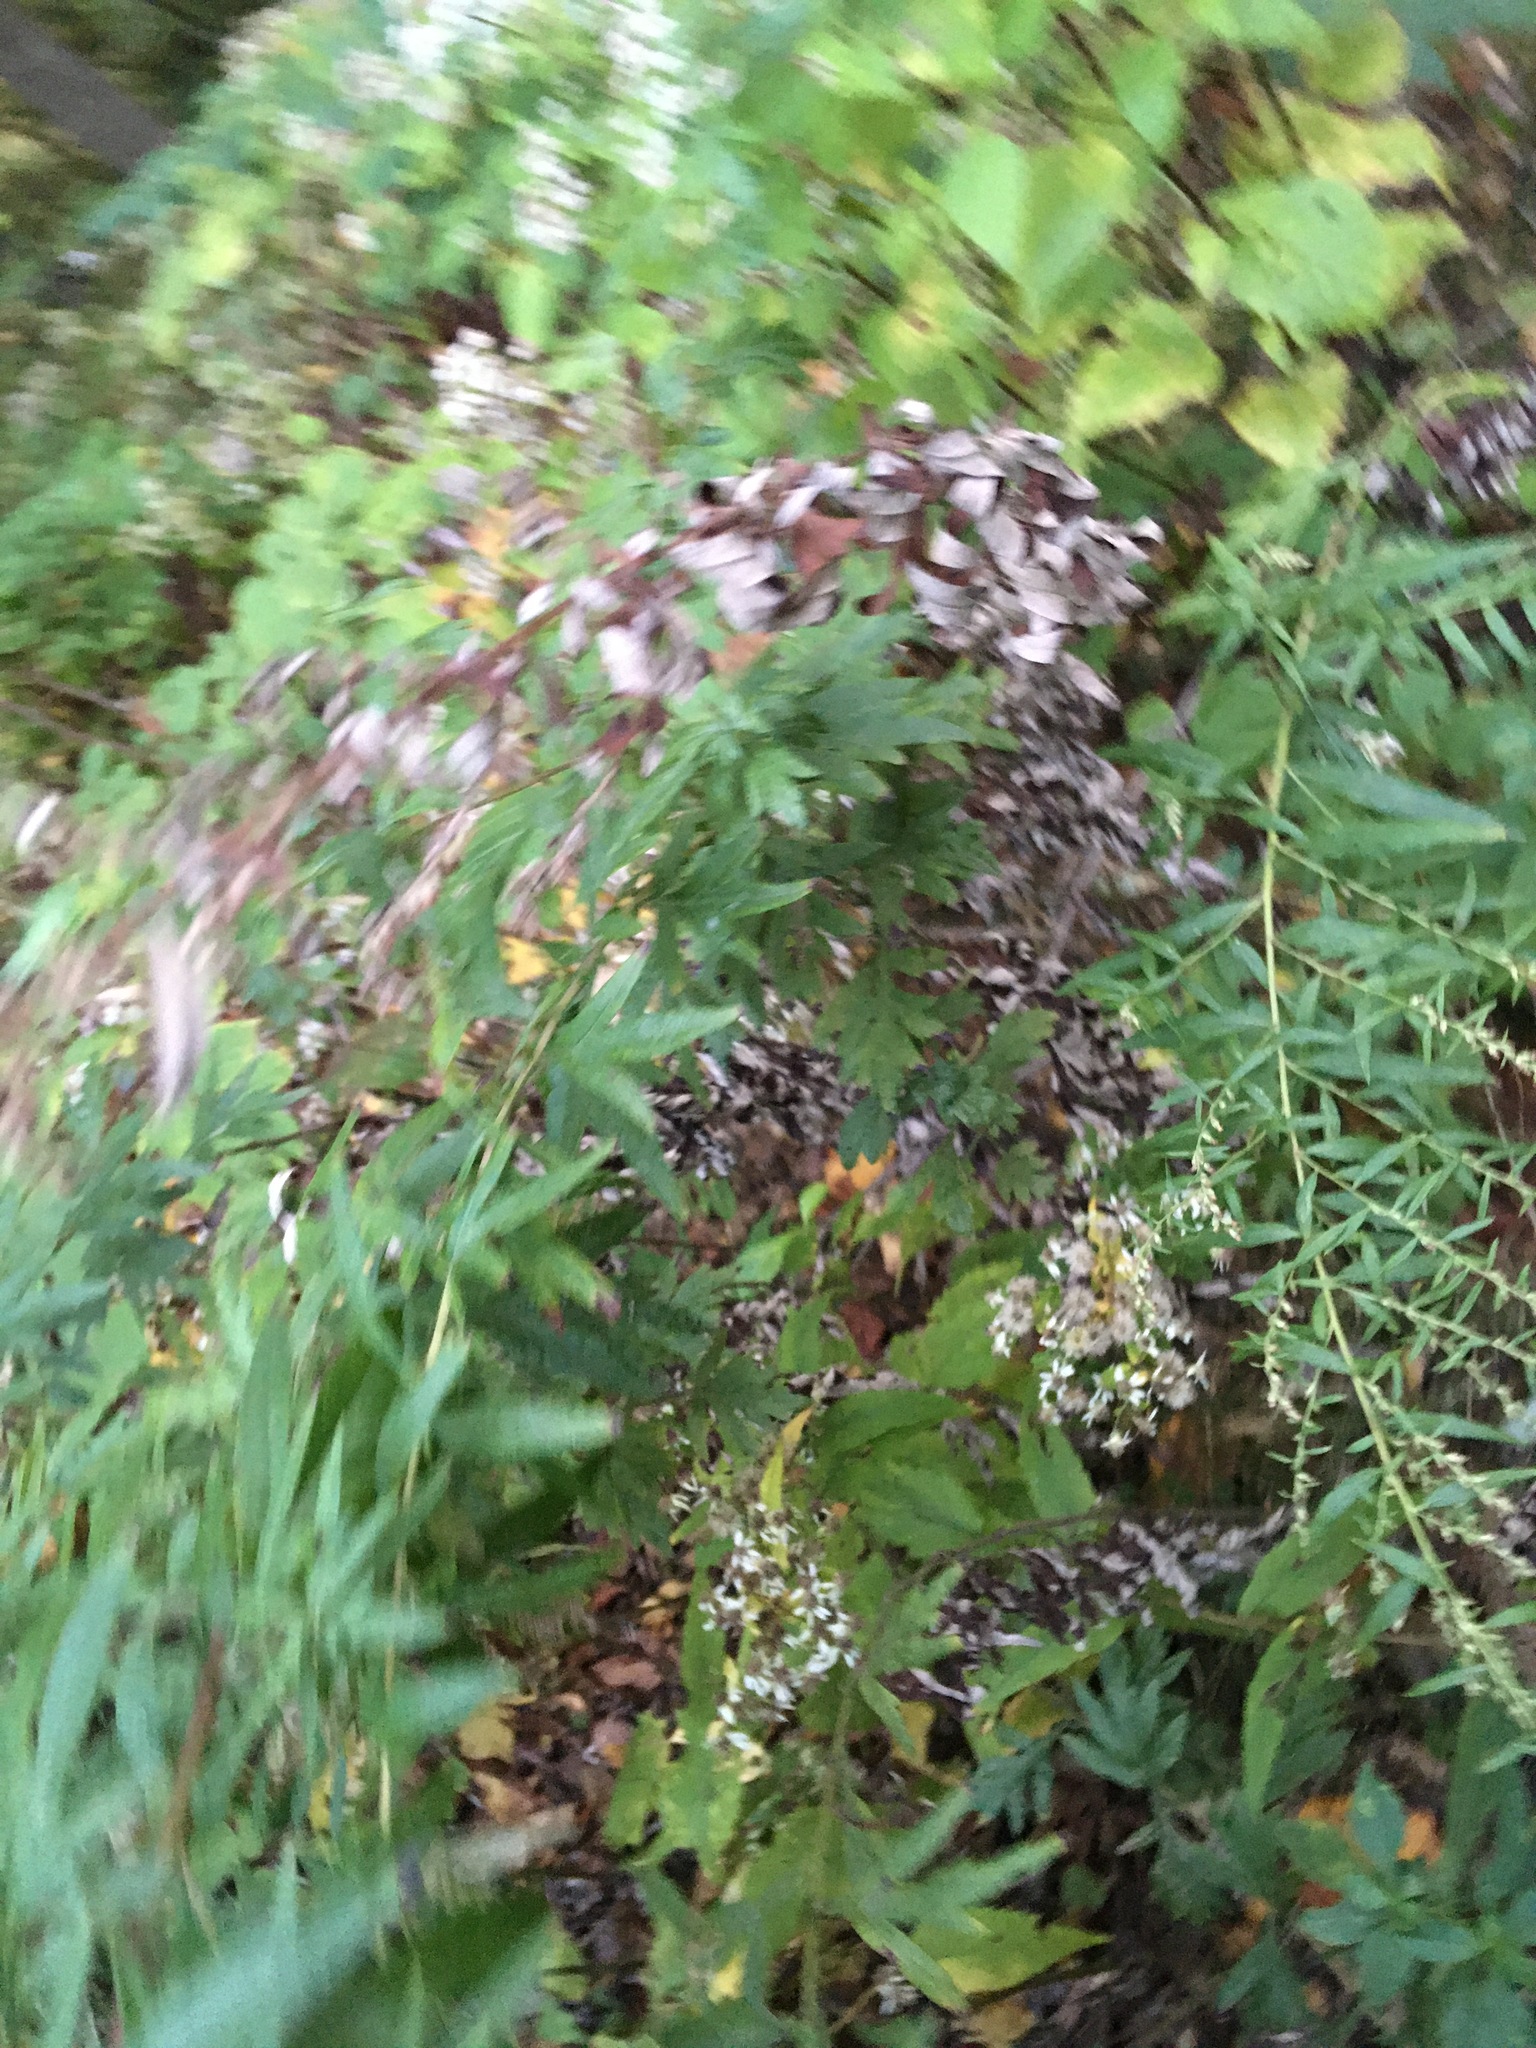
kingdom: Plantae
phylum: Tracheophyta
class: Magnoliopsida
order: Asterales
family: Asteraceae
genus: Artemisia
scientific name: Artemisia vulgaris
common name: Mugwort
